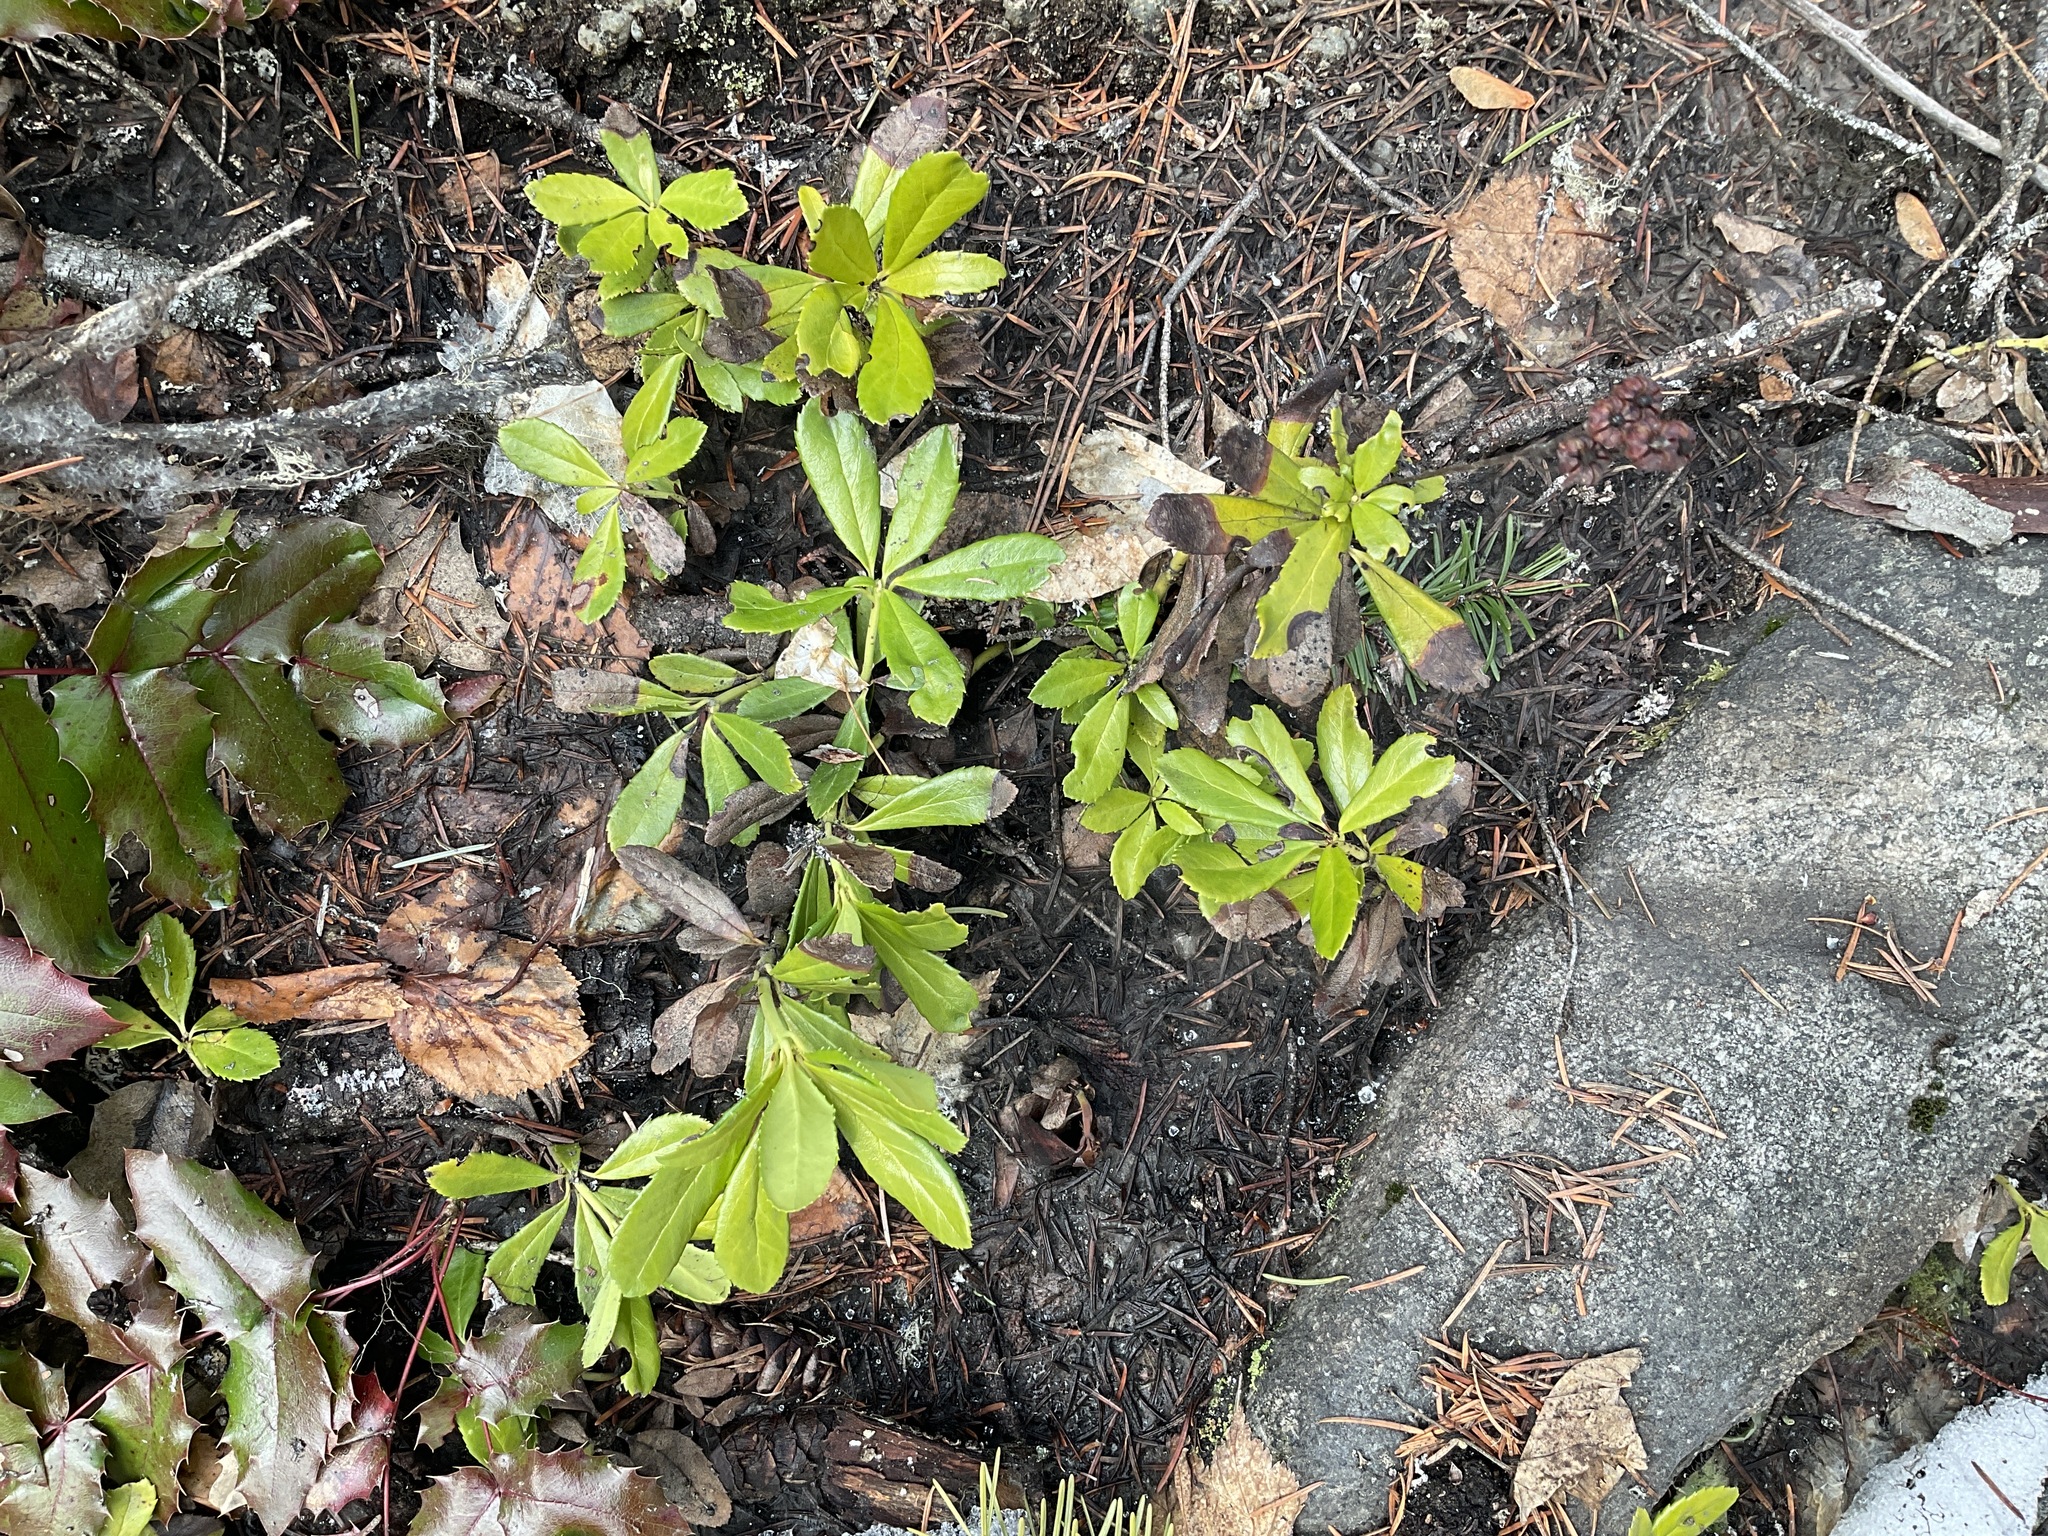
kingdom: Plantae
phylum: Tracheophyta
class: Magnoliopsida
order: Ericales
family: Ericaceae
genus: Chimaphila
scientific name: Chimaphila umbellata
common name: Pipsissewa
